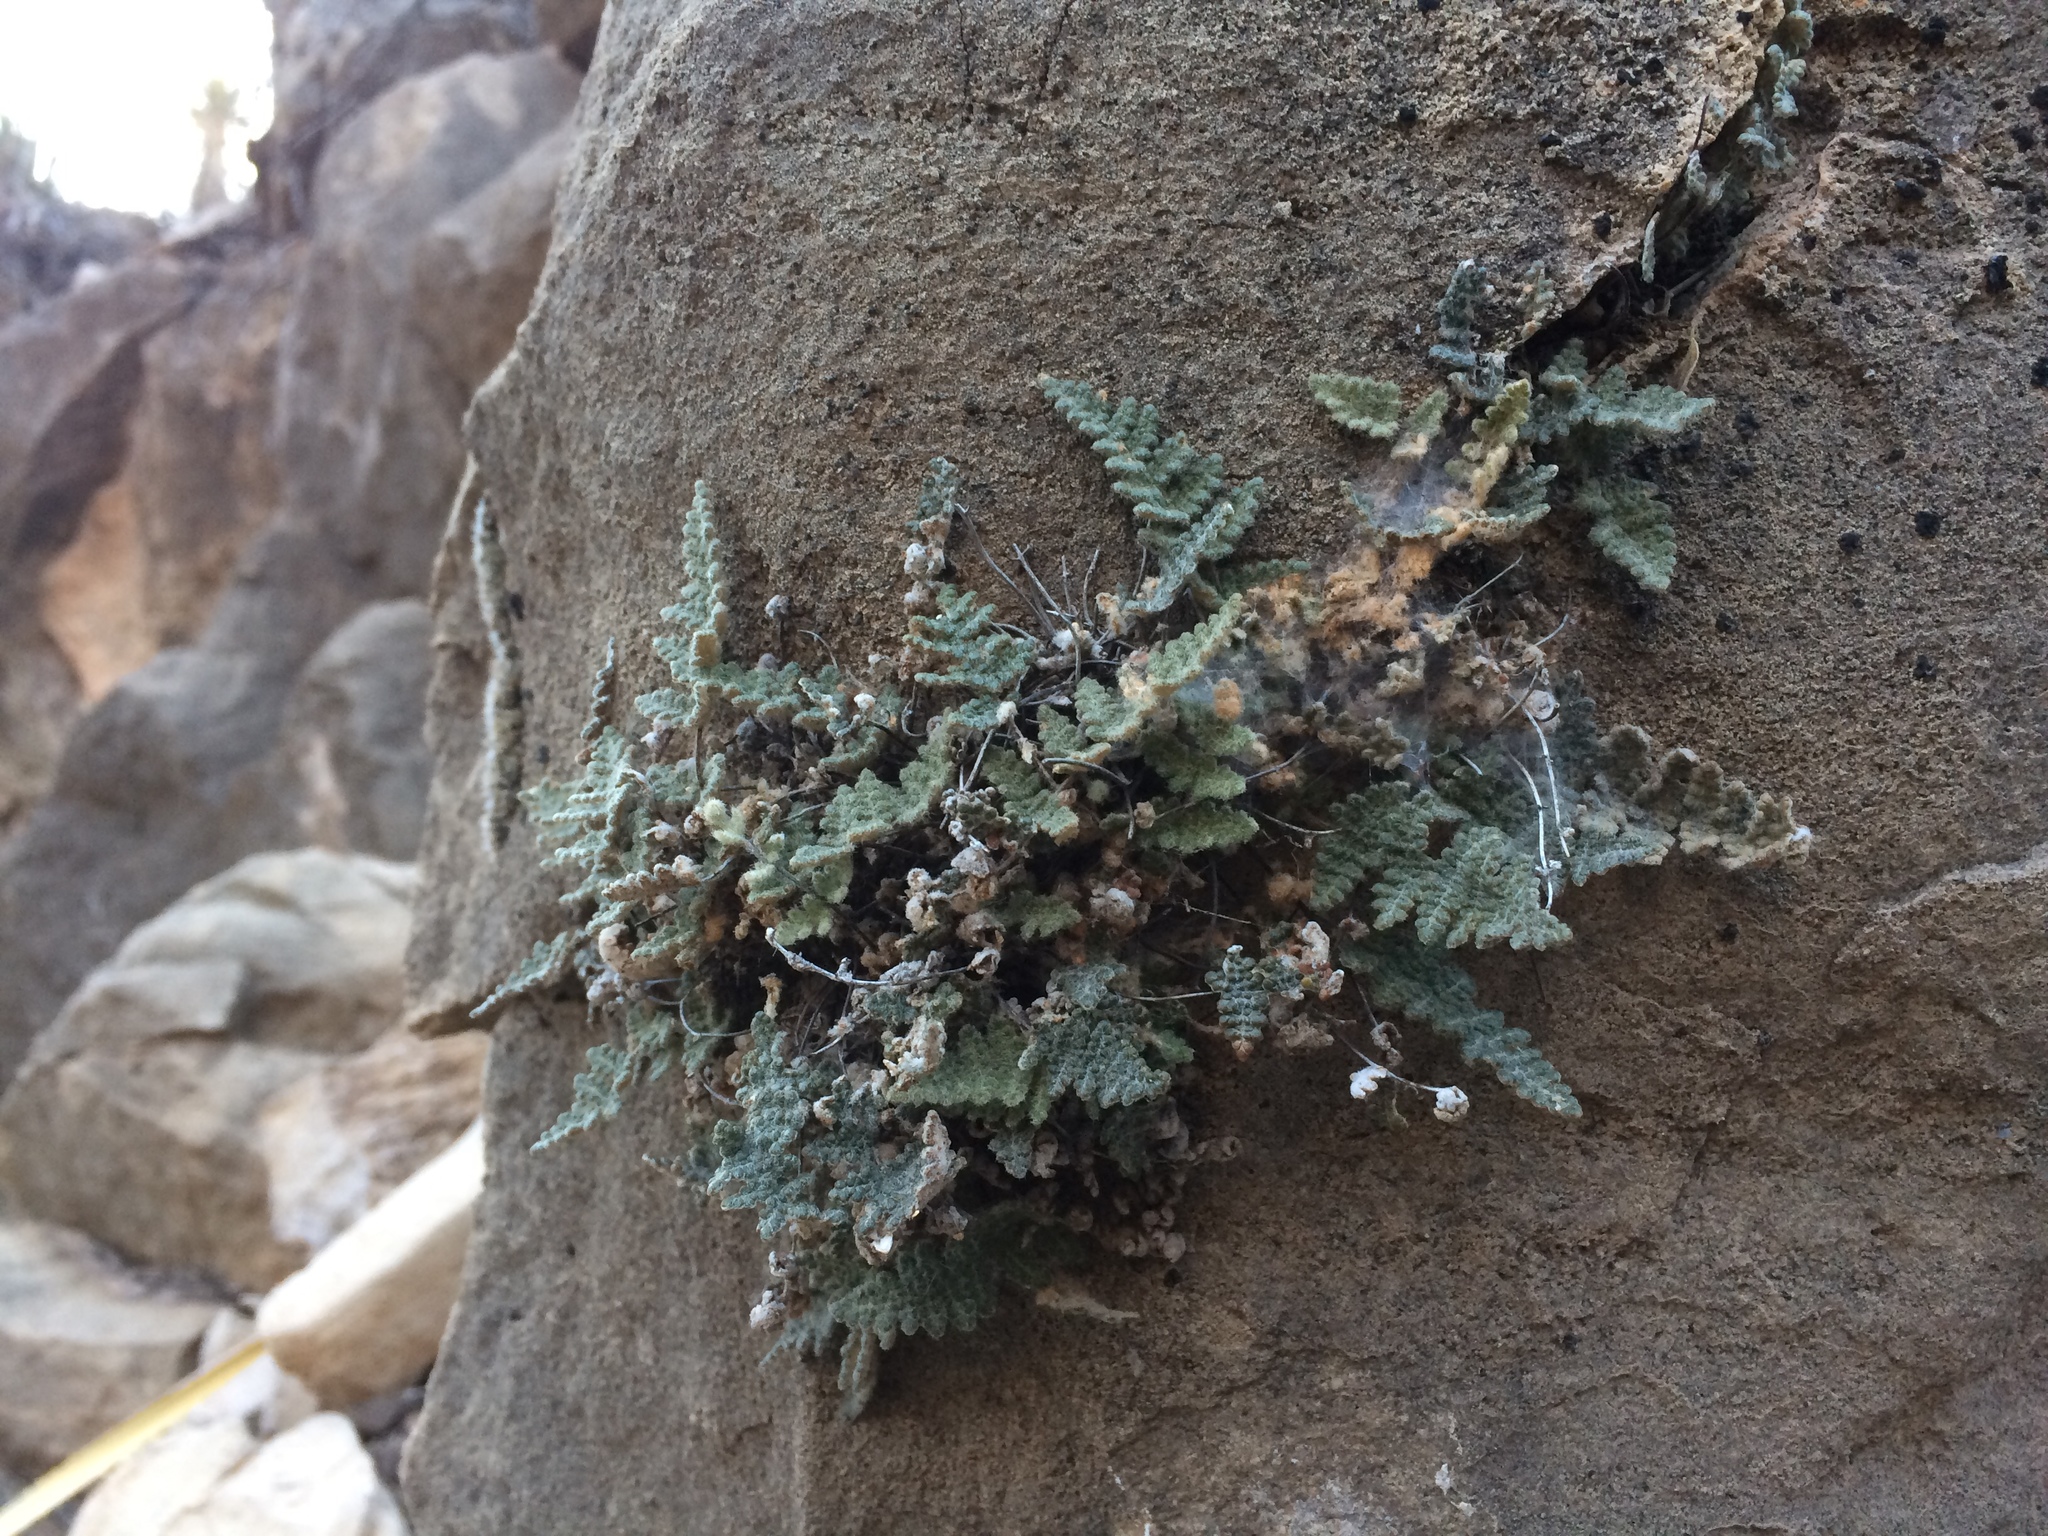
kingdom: Plantae
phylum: Tracheophyta
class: Polypodiopsida
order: Polypodiales
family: Pteridaceae
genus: Myriopteris
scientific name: Myriopteris gracilis
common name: Fee's lip fern
